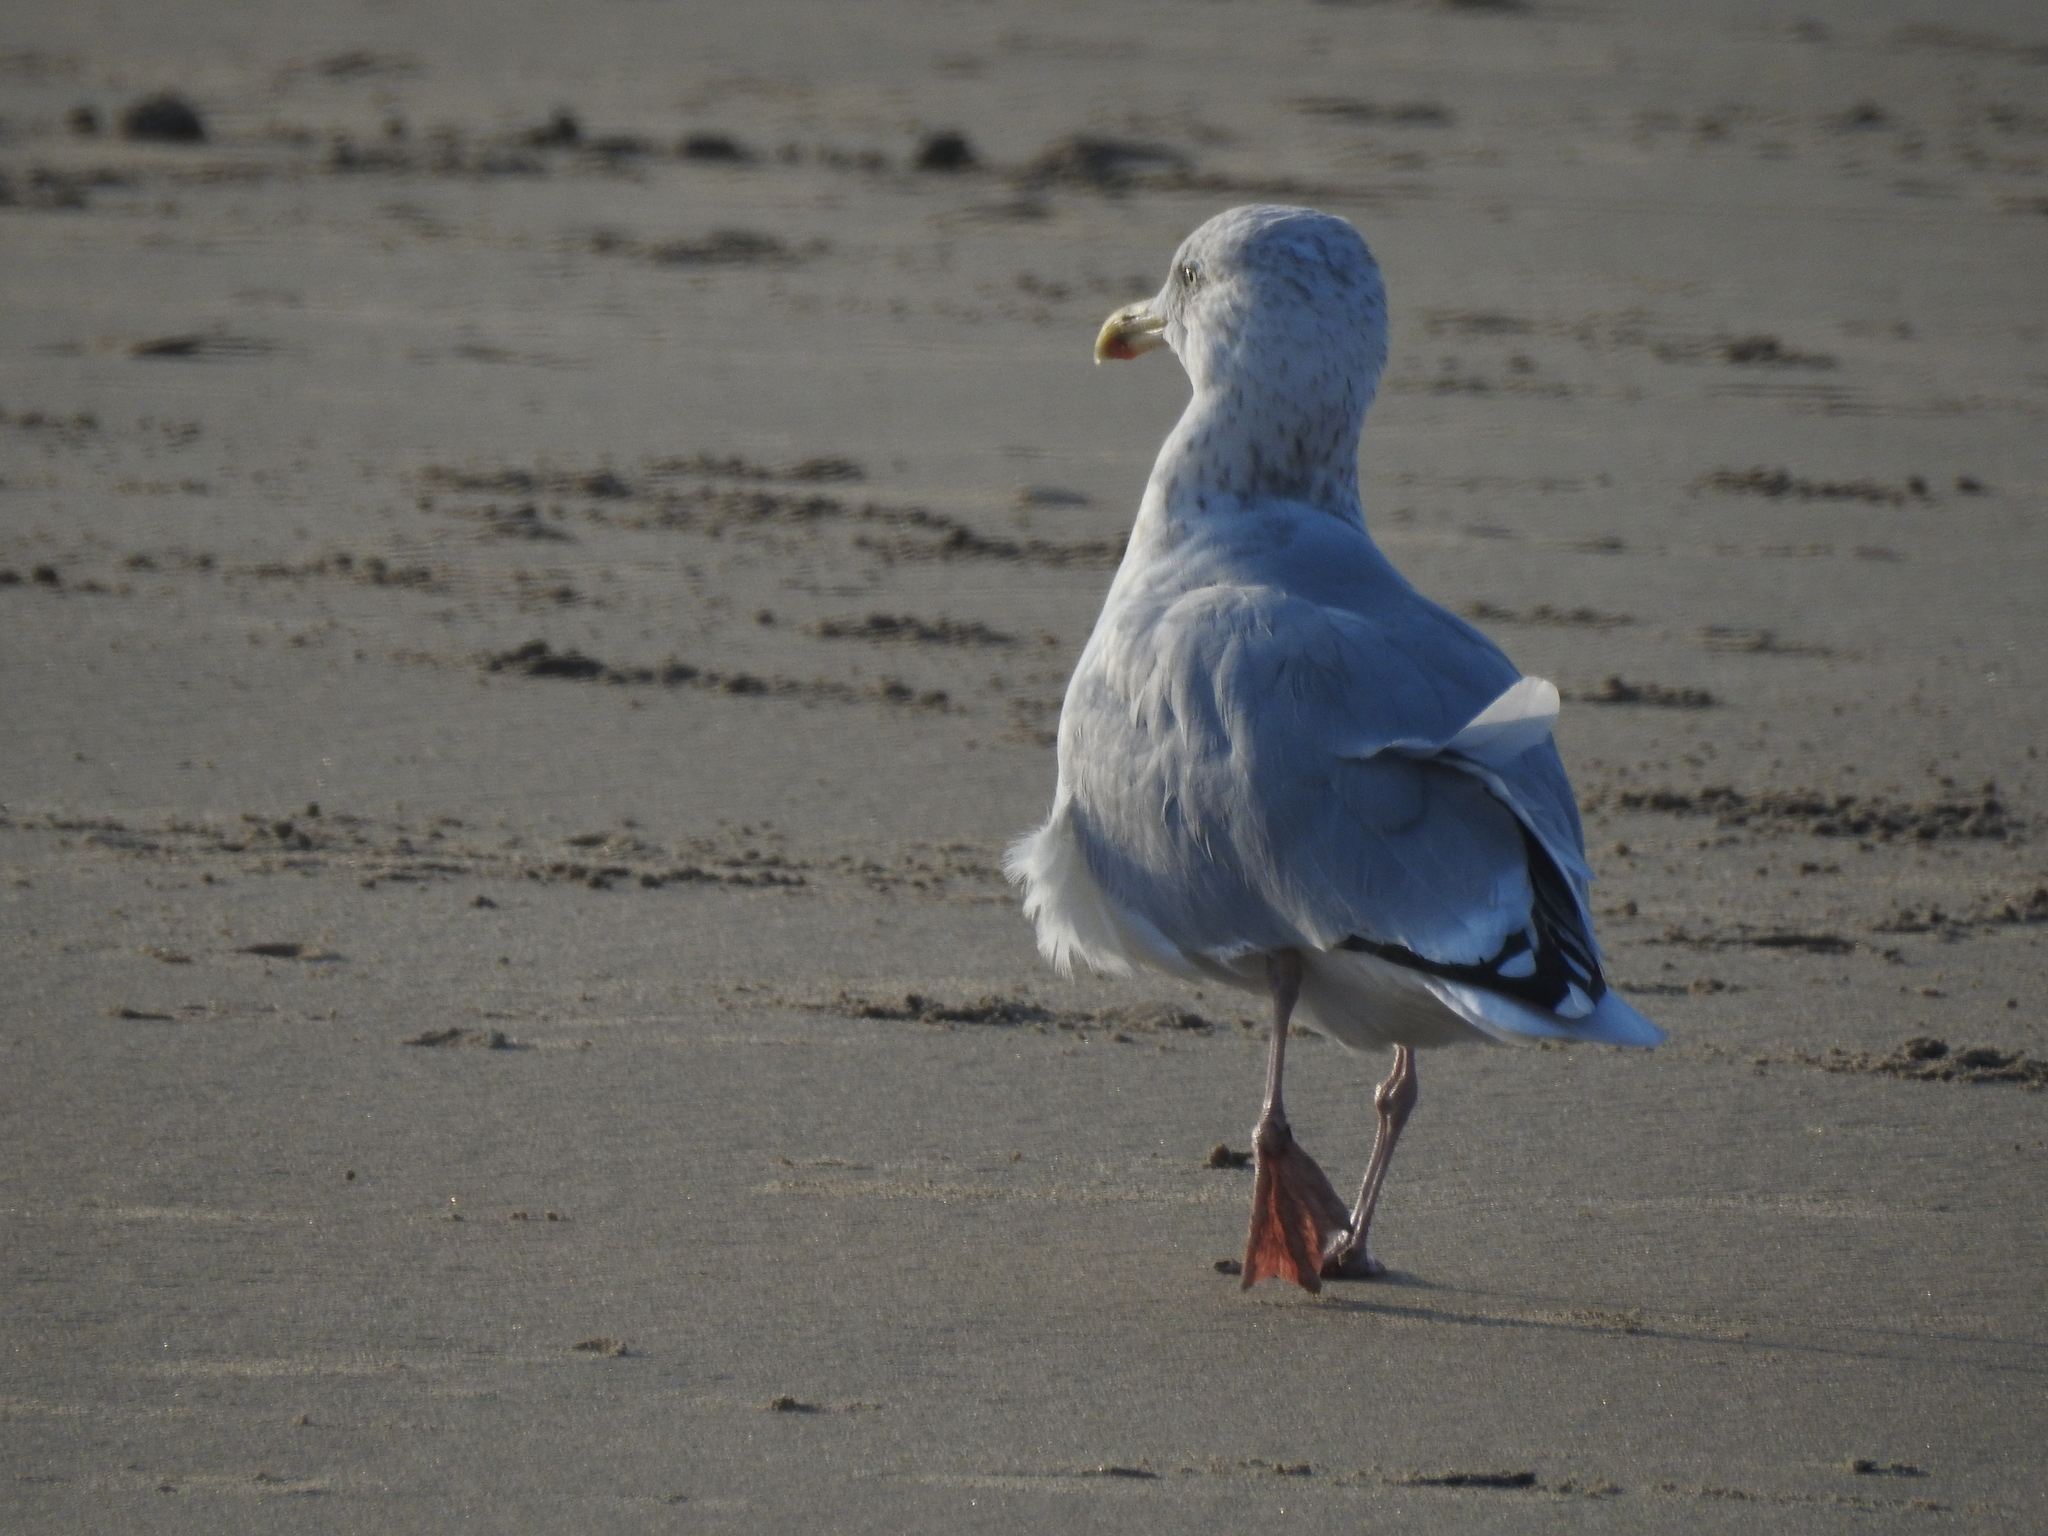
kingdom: Animalia
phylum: Chordata
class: Aves
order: Charadriiformes
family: Laridae
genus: Larus
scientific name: Larus argentatus
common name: Herring gull
